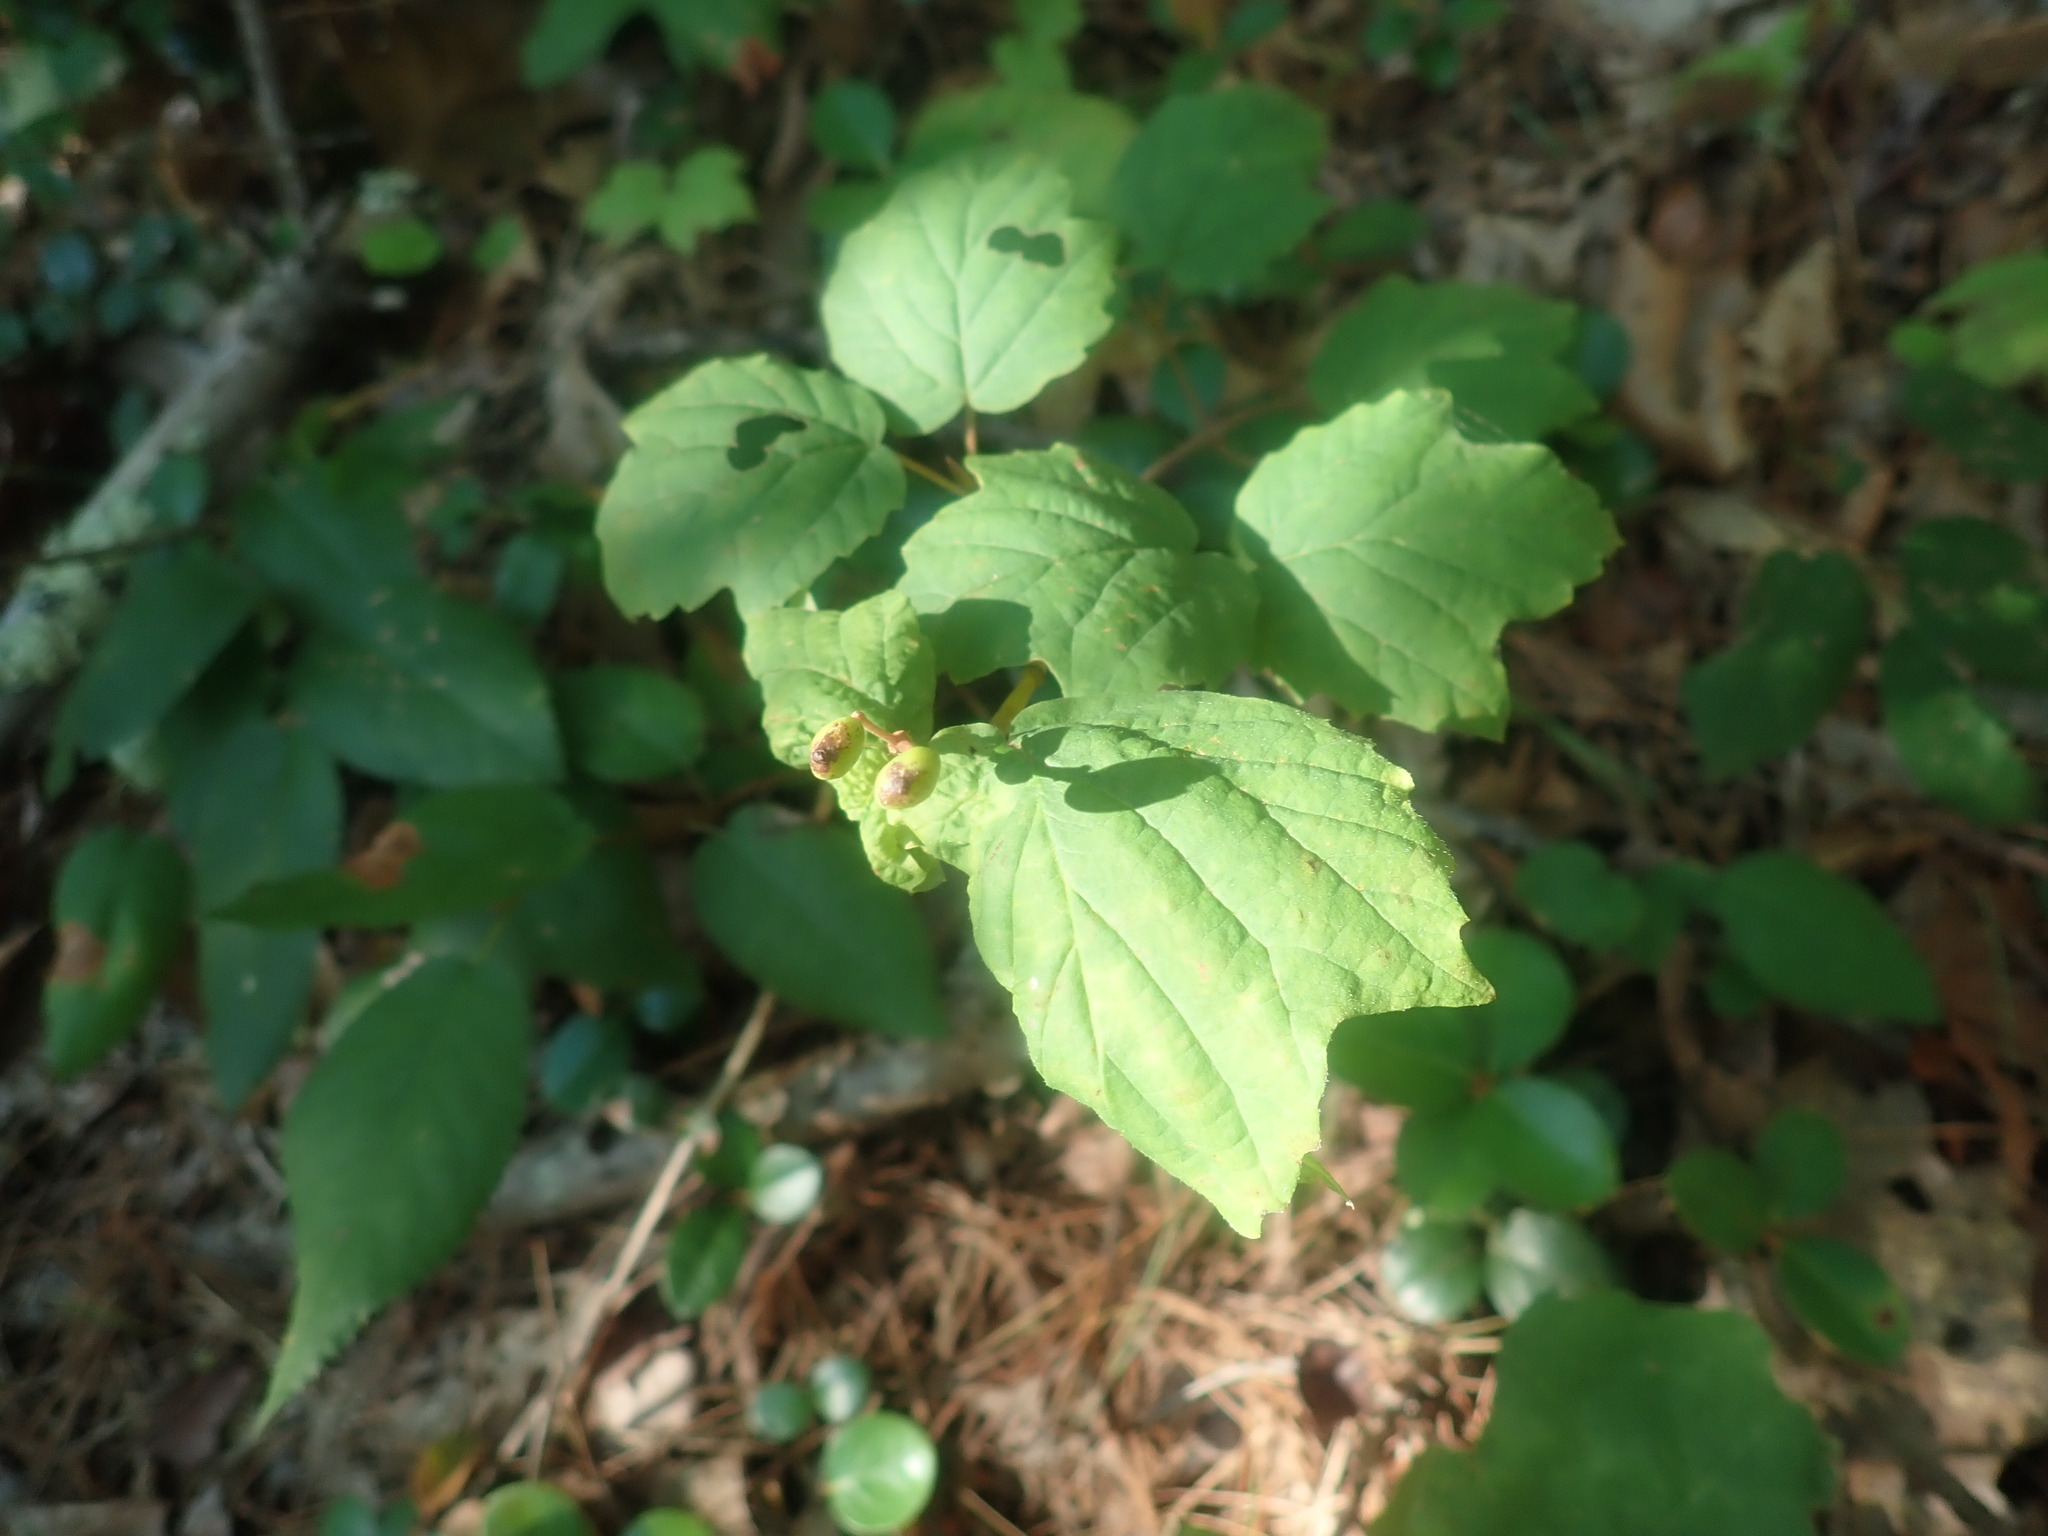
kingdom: Plantae
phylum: Tracheophyta
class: Magnoliopsida
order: Dipsacales
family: Viburnaceae
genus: Viburnum
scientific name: Viburnum acerifolium
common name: Dockmackie
